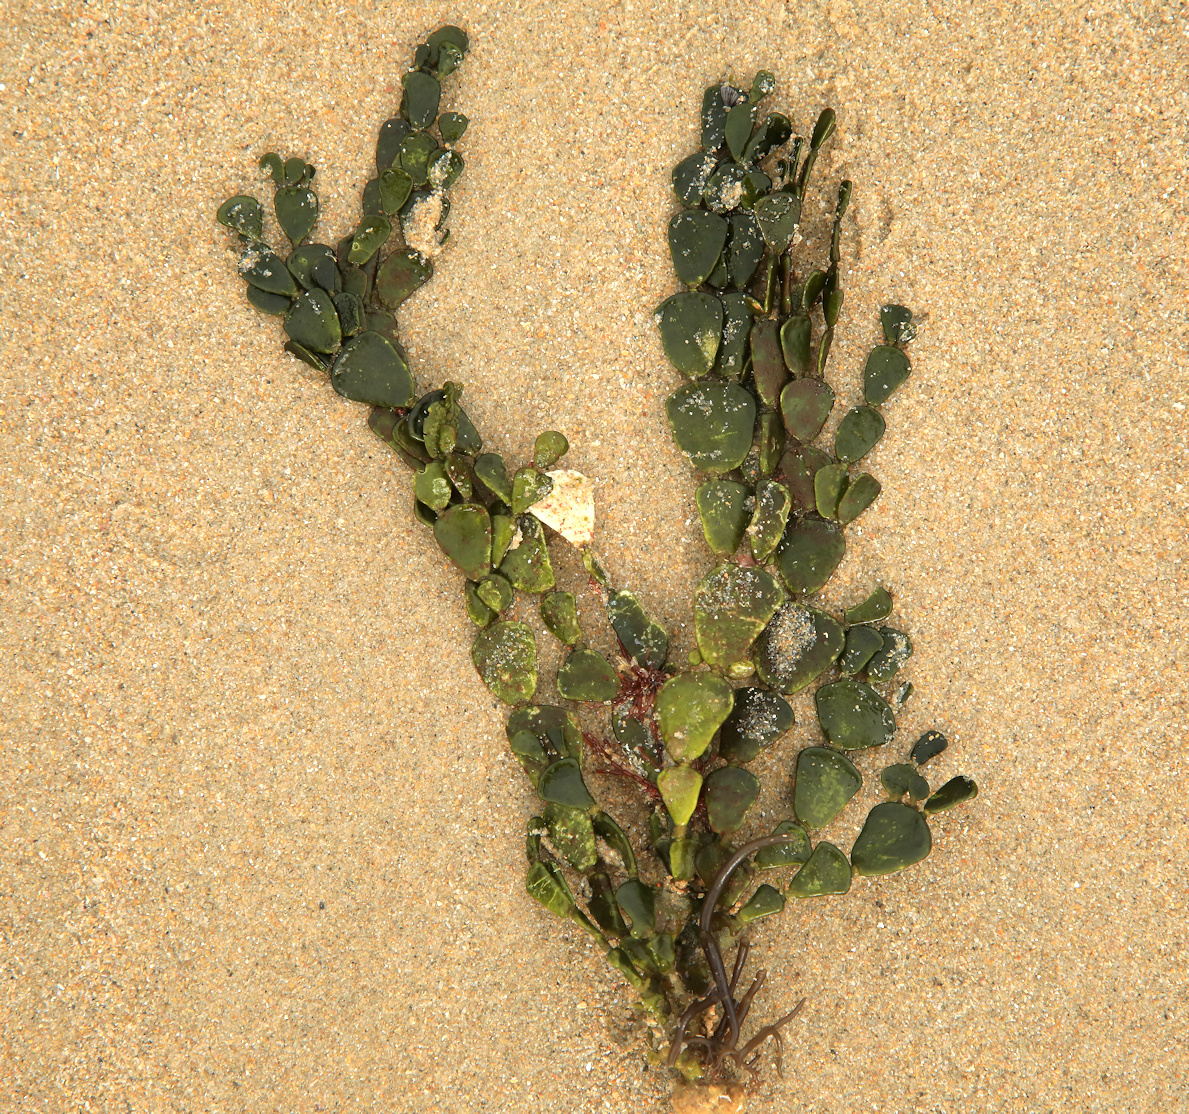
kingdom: Plantae
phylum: Chlorophyta
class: Ulvophyceae
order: Bryopsidales
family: Halimedaceae
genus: Halimeda
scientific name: Halimeda cuneata
